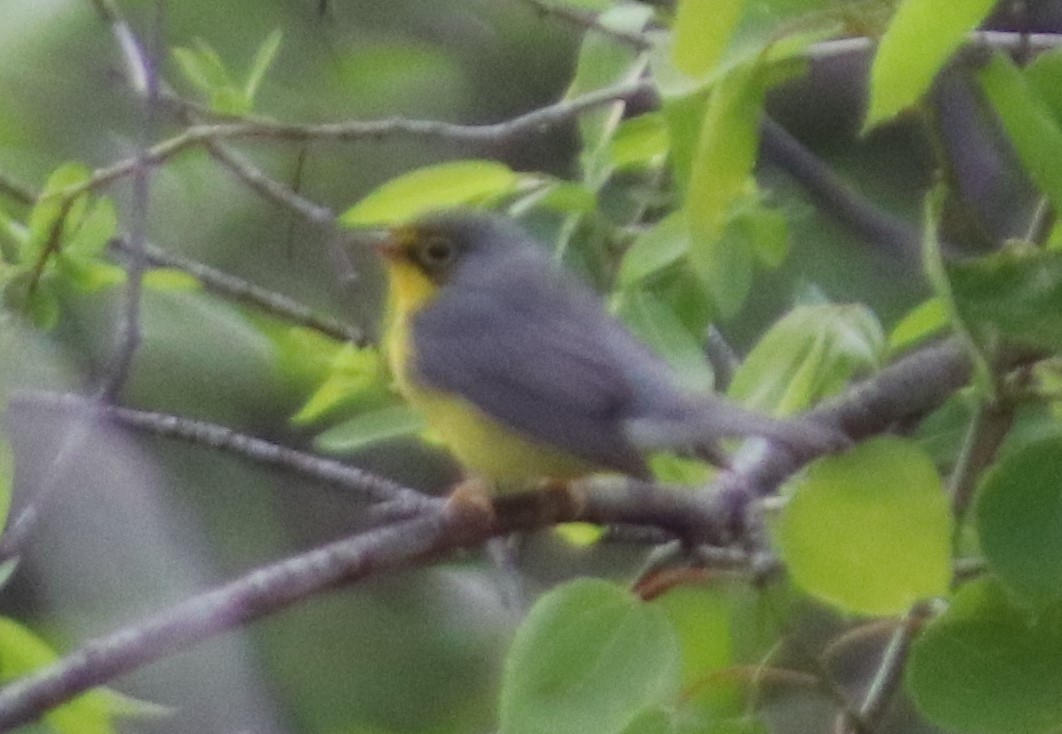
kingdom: Animalia
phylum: Chordata
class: Aves
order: Passeriformes
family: Parulidae
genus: Cardellina
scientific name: Cardellina canadensis
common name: Canada warbler
